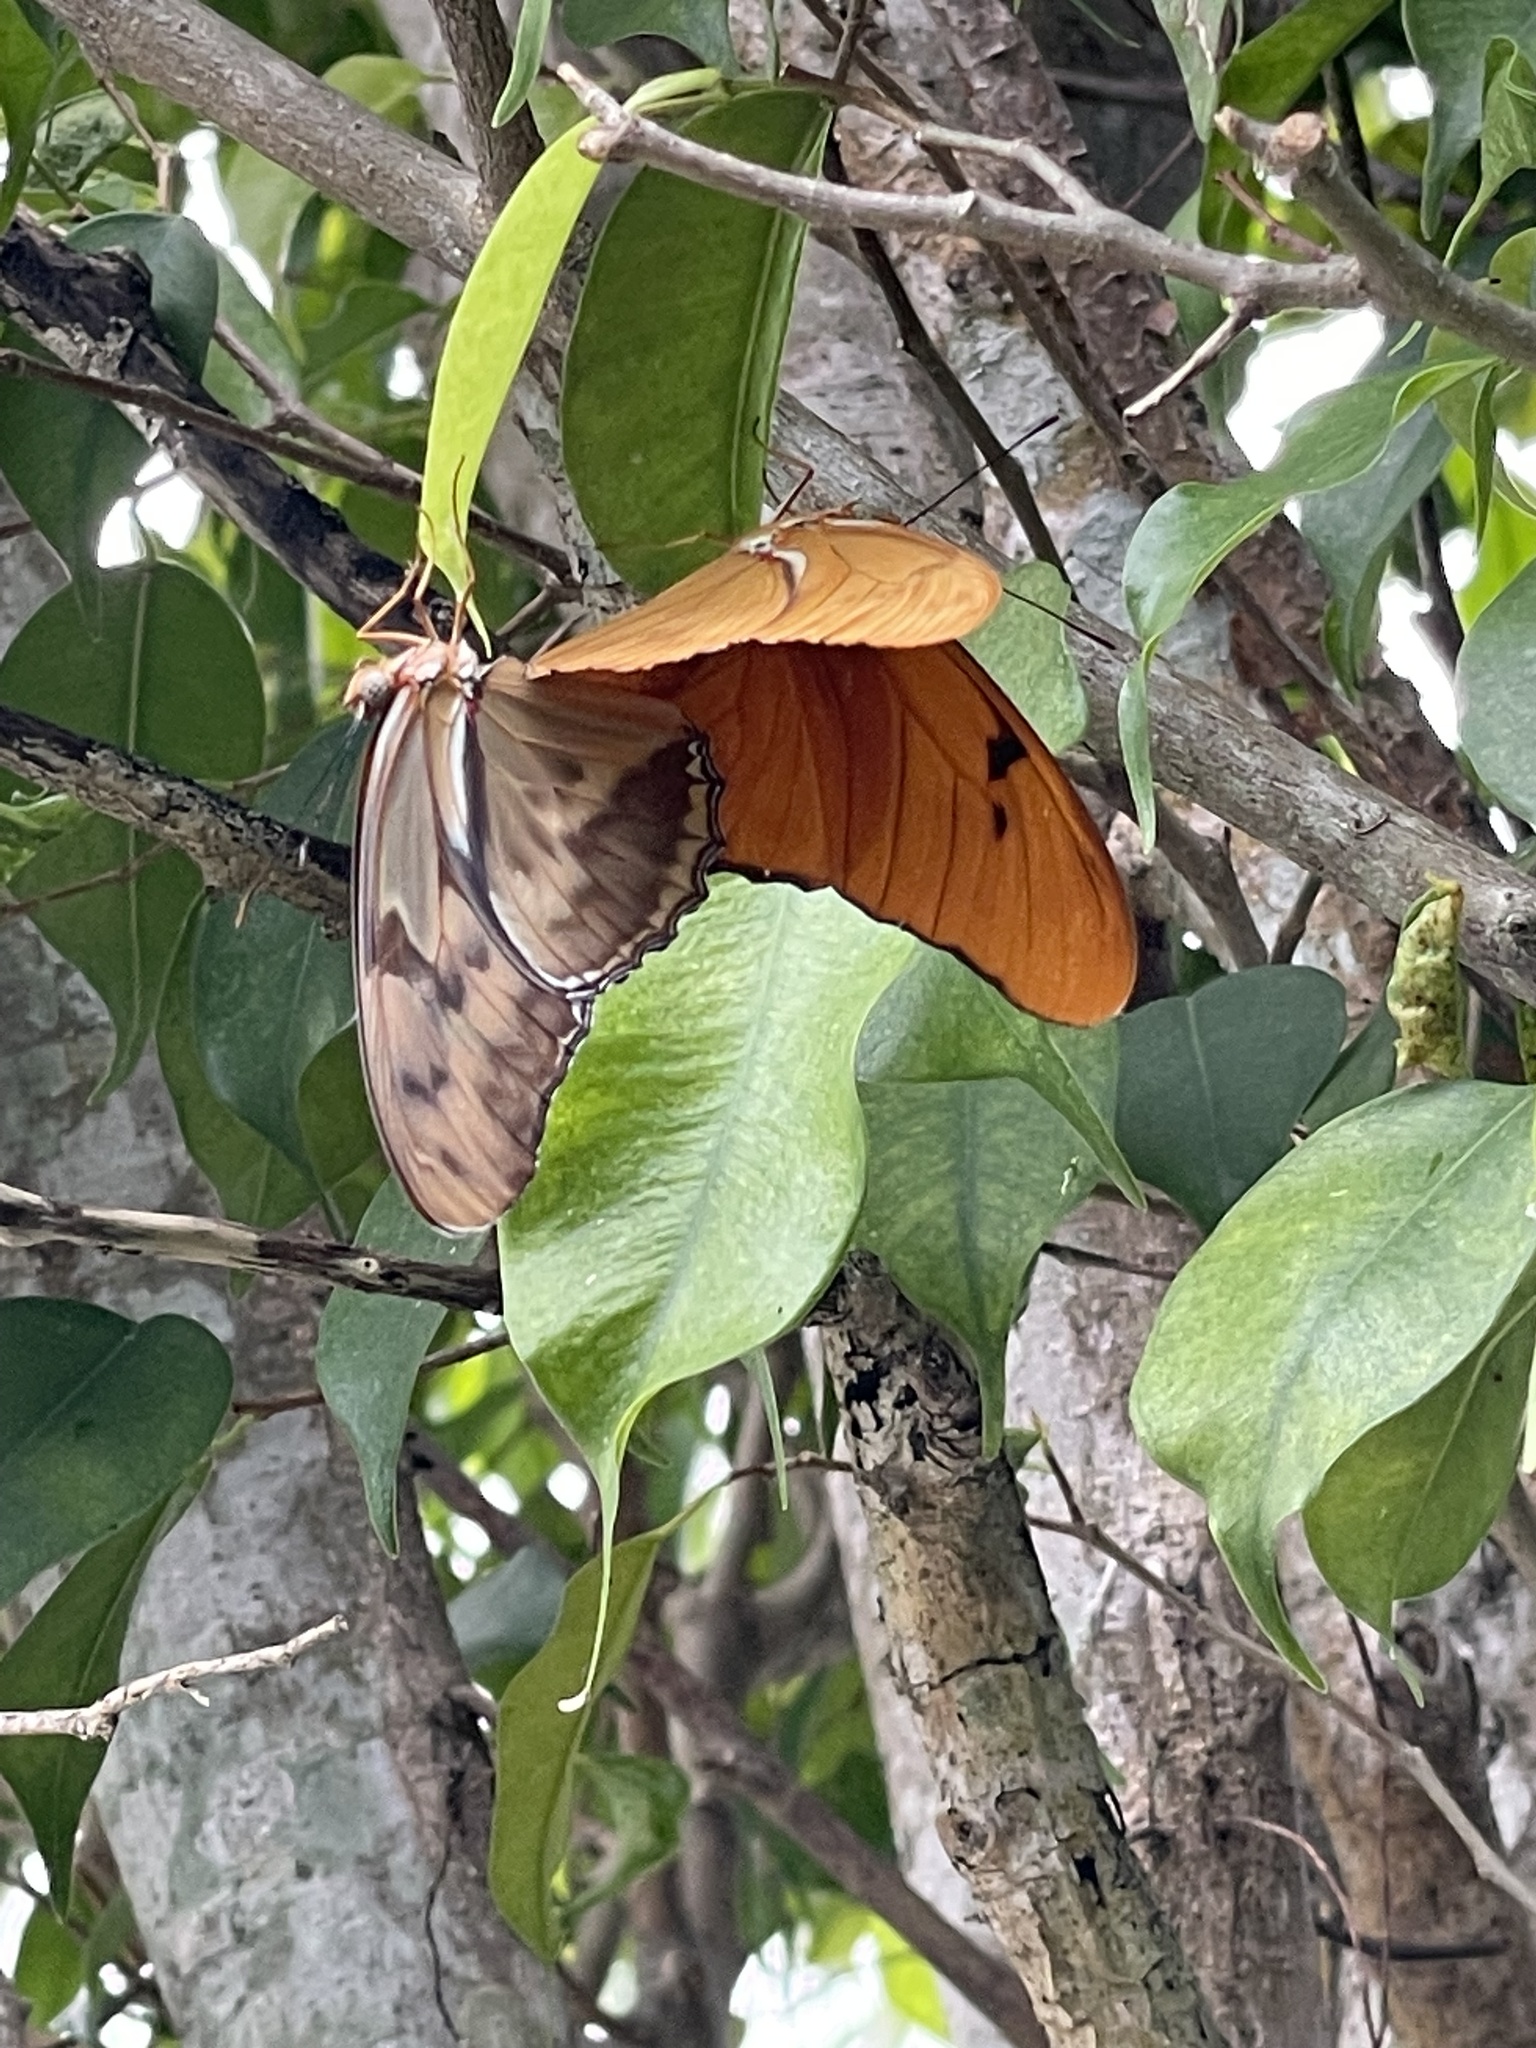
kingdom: Animalia
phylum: Arthropoda
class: Insecta
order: Lepidoptera
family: Nymphalidae
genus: Dryas
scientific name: Dryas iulia
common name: Flambeau
